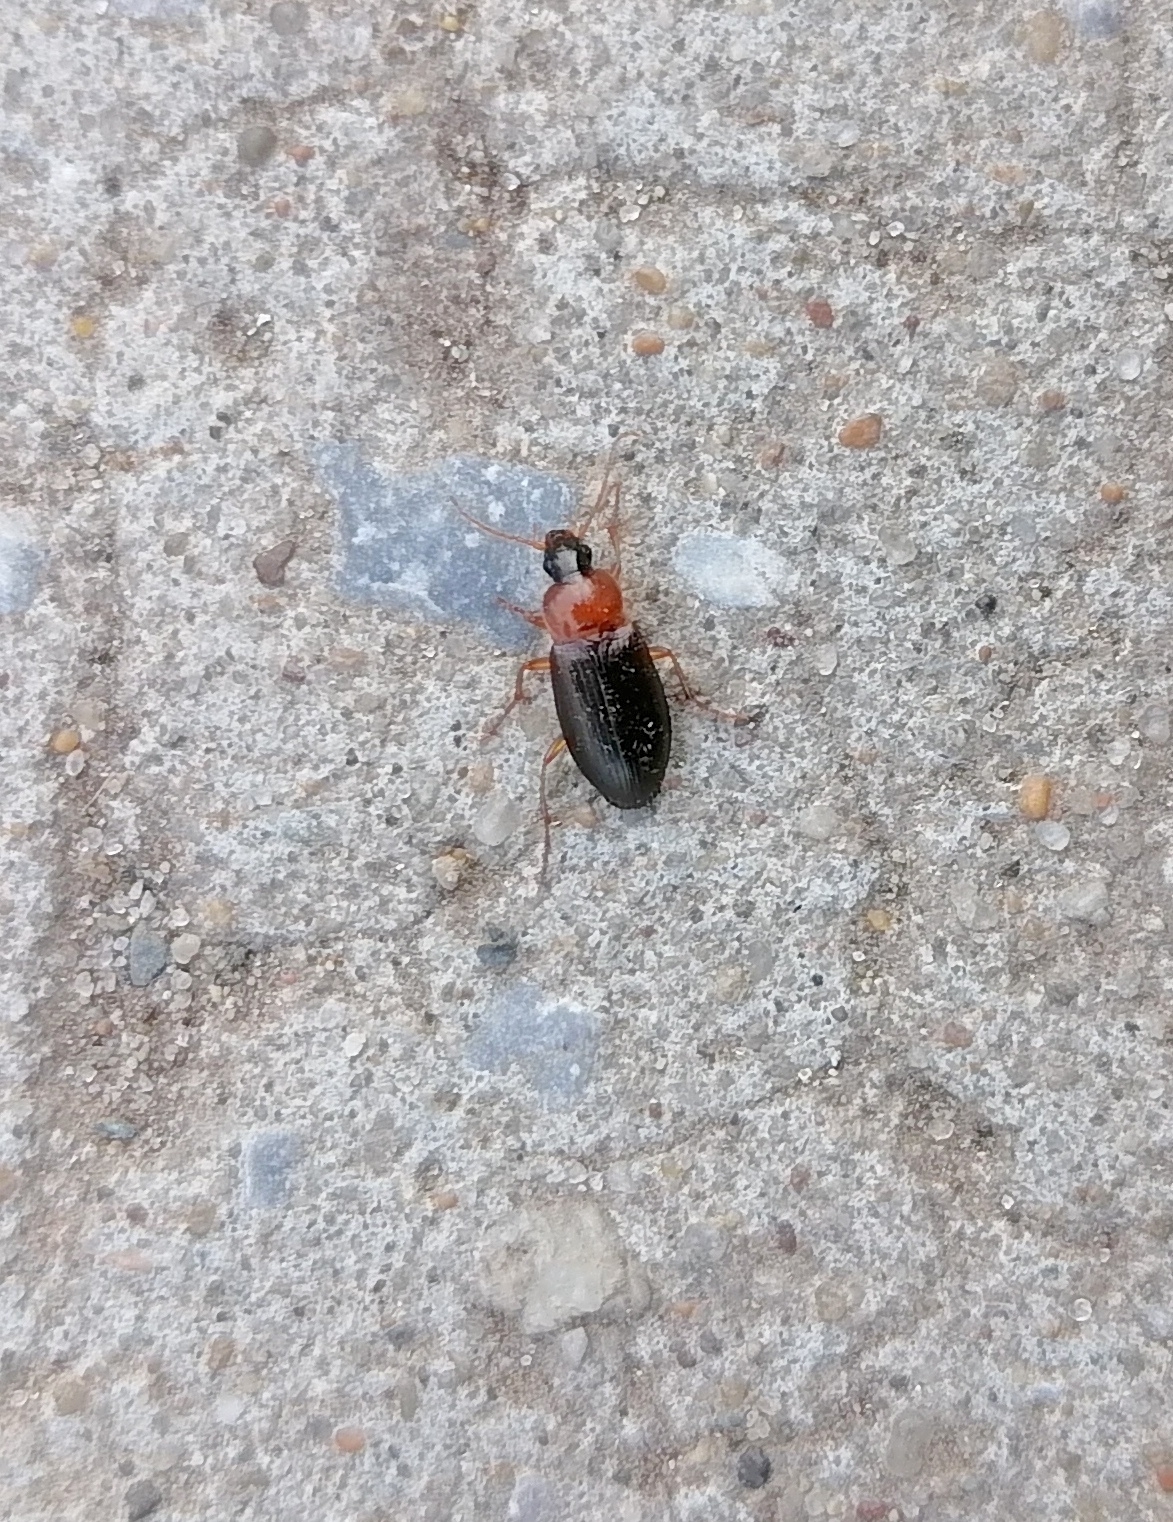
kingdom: Animalia
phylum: Arthropoda
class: Insecta
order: Coleoptera
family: Carabidae
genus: Calathus
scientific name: Calathus melanocephalus
